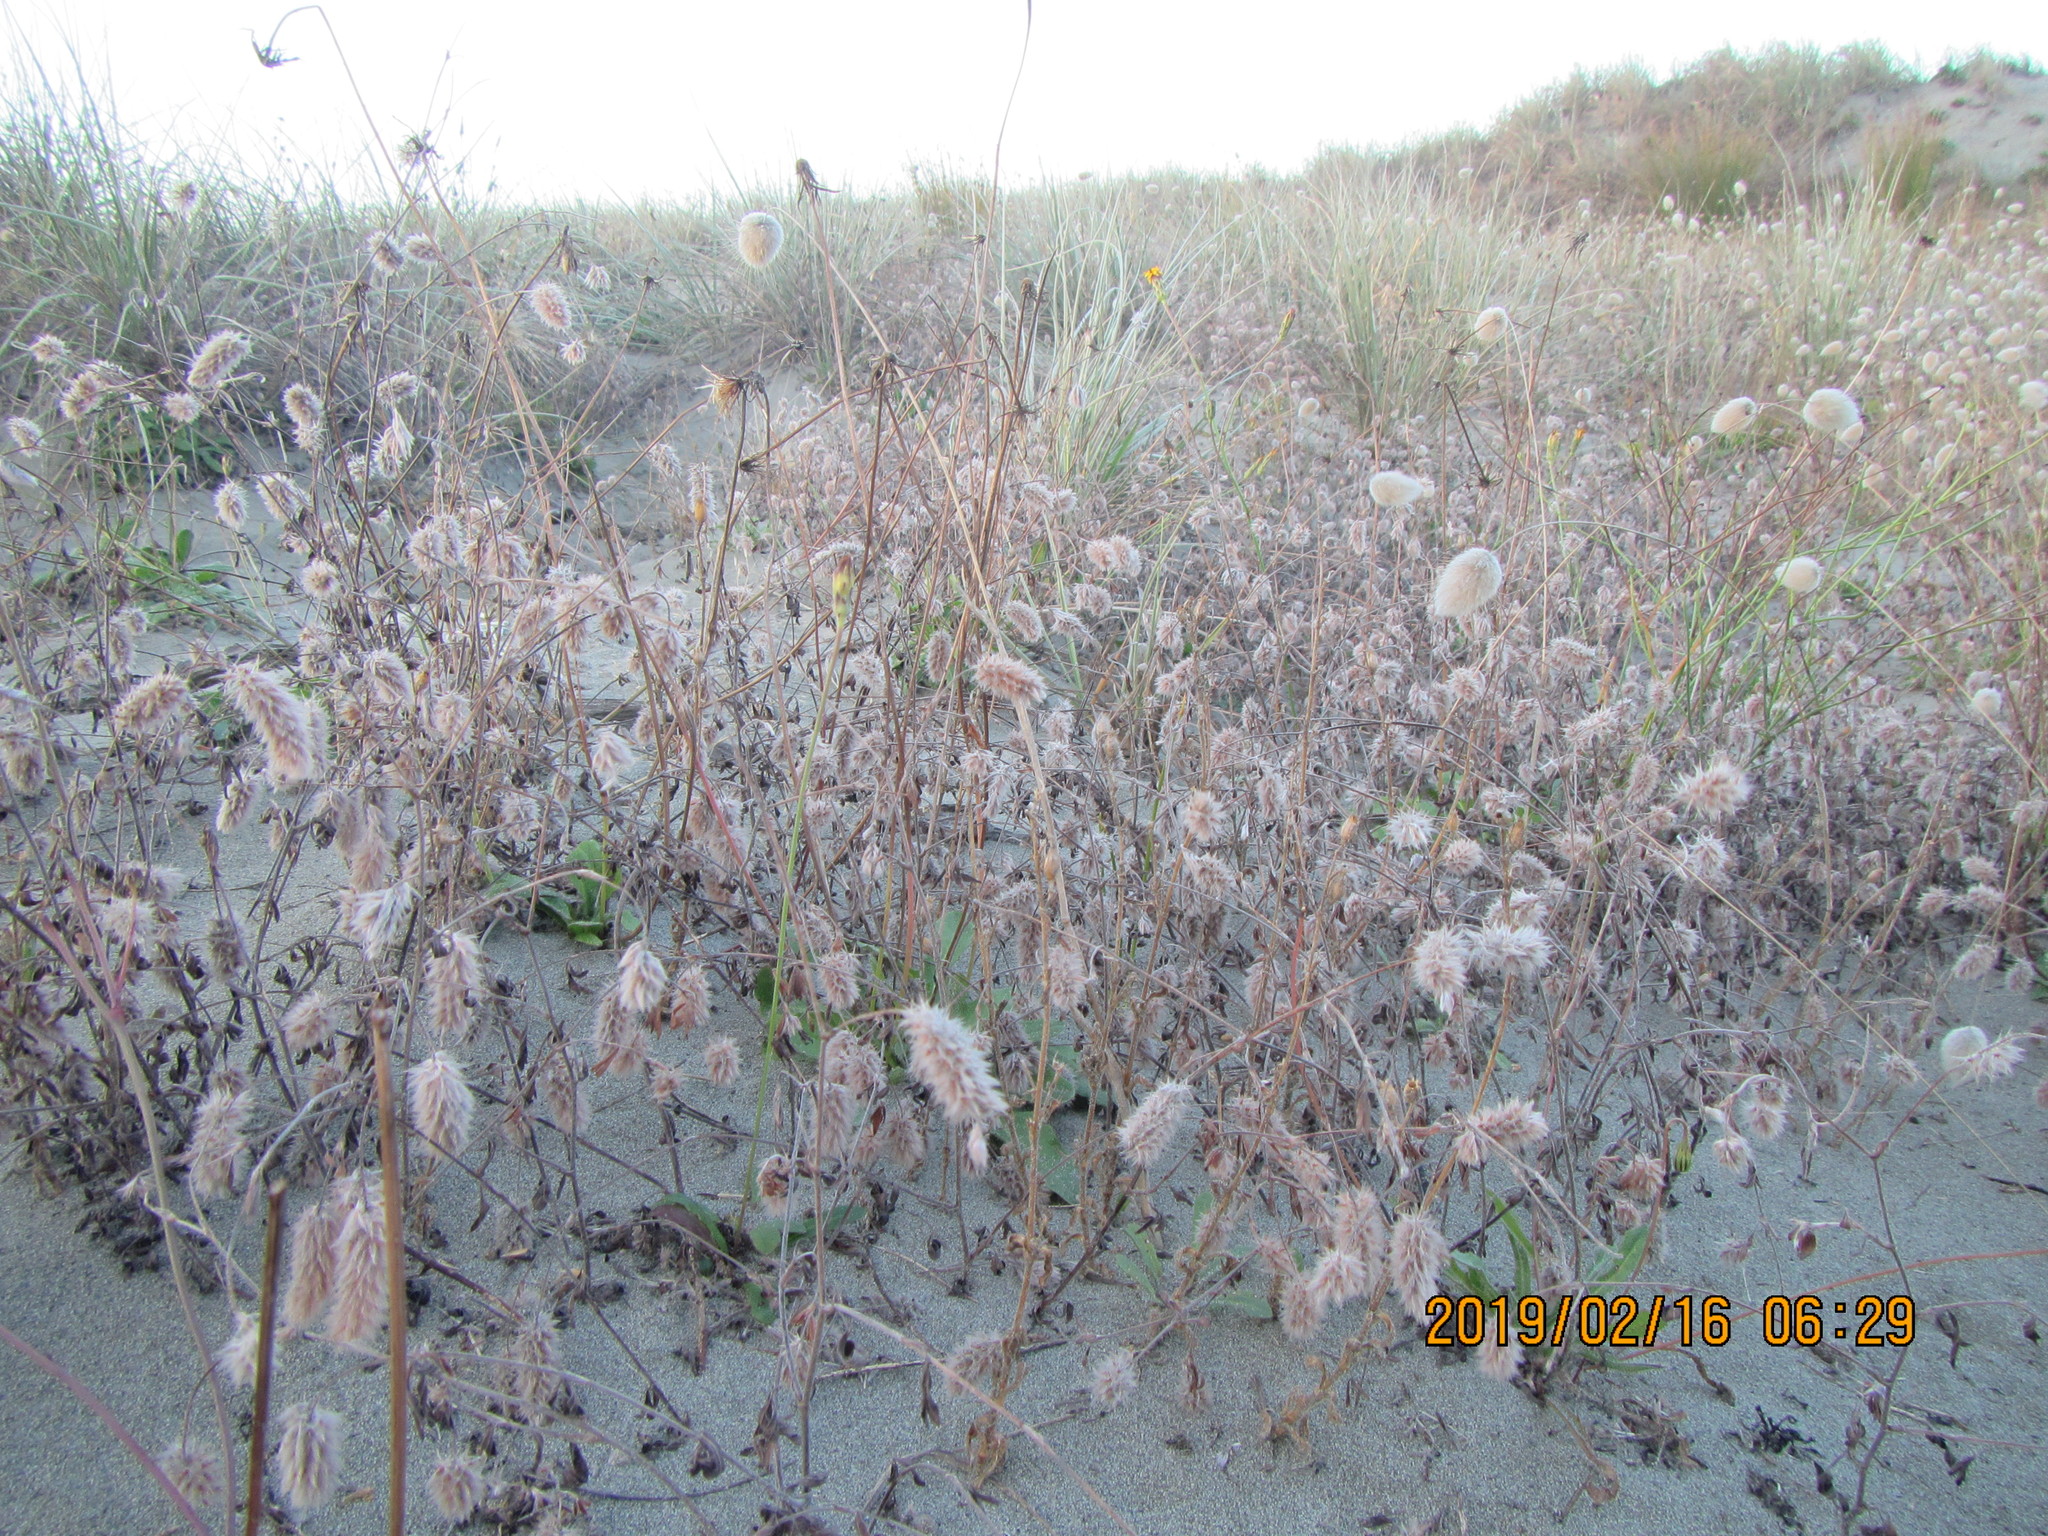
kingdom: Plantae
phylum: Tracheophyta
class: Magnoliopsida
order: Fabales
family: Fabaceae
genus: Trifolium
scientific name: Trifolium arvense
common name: Hare's-foot clover
